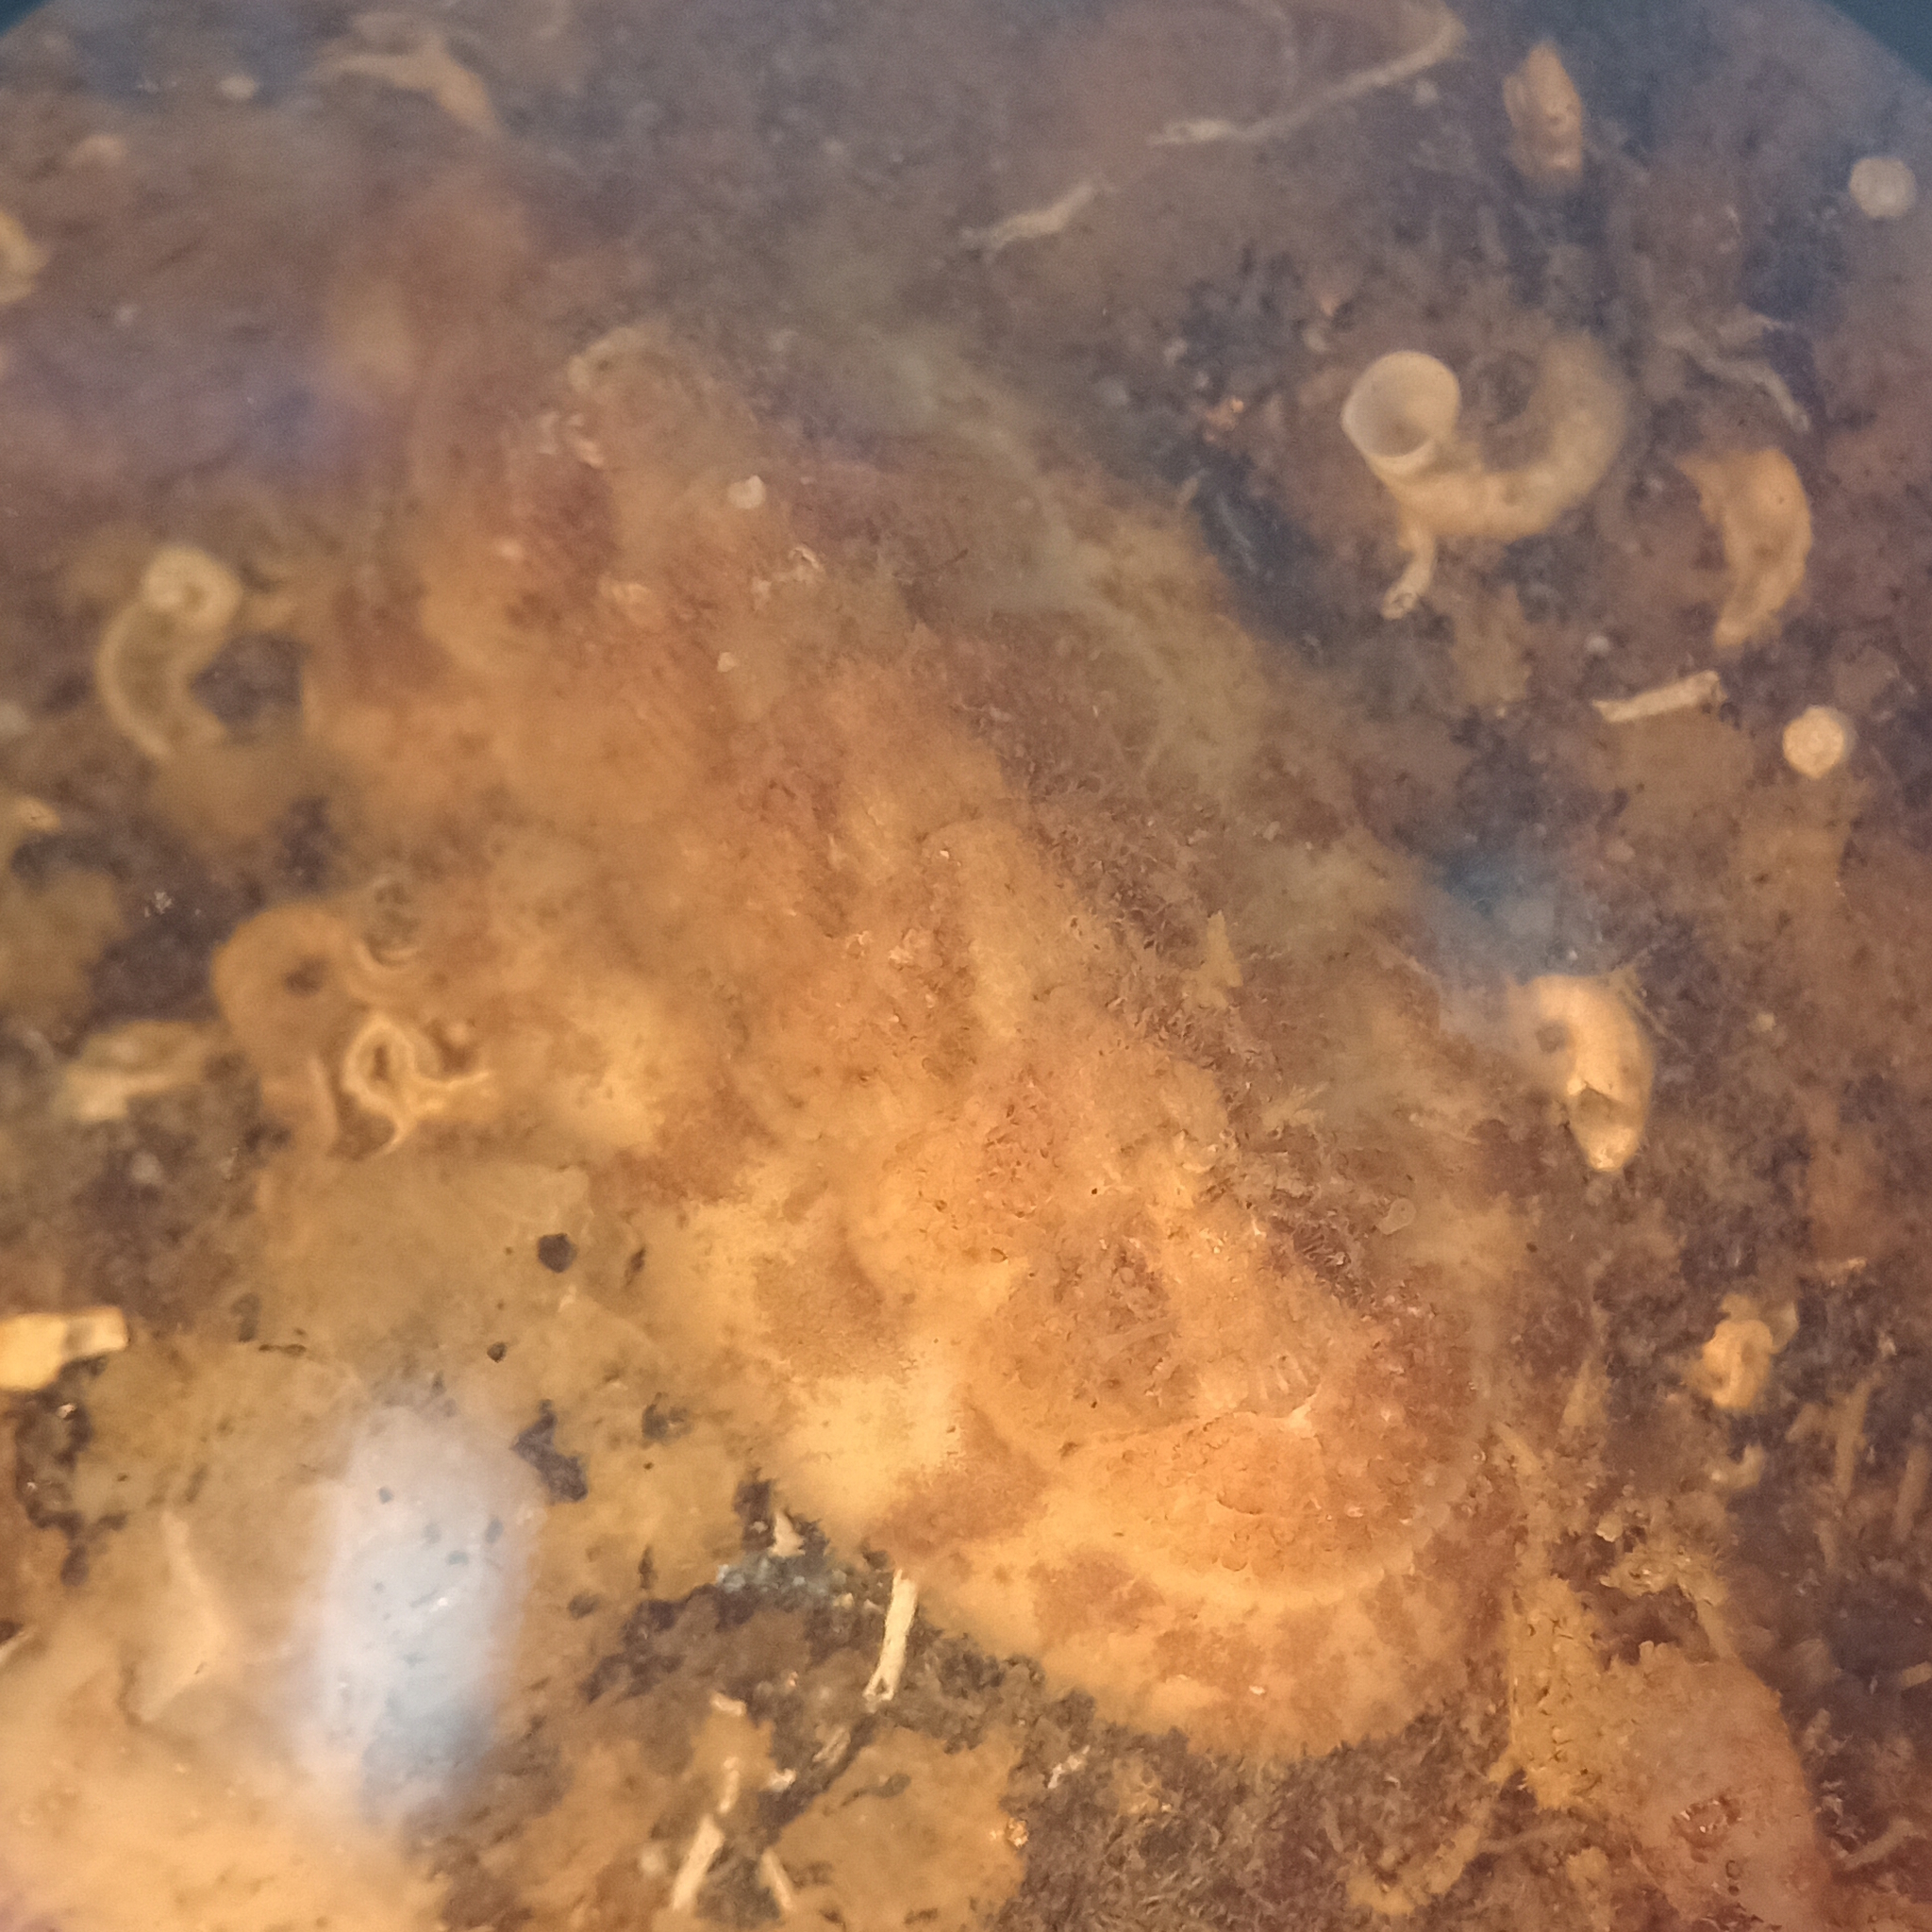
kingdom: Animalia
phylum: Mollusca
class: Polyplacophora
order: Chitonida
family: Callistoplacidae
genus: Calloplax
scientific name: Calloplax janeirensis
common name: West indian ribbed chiton
